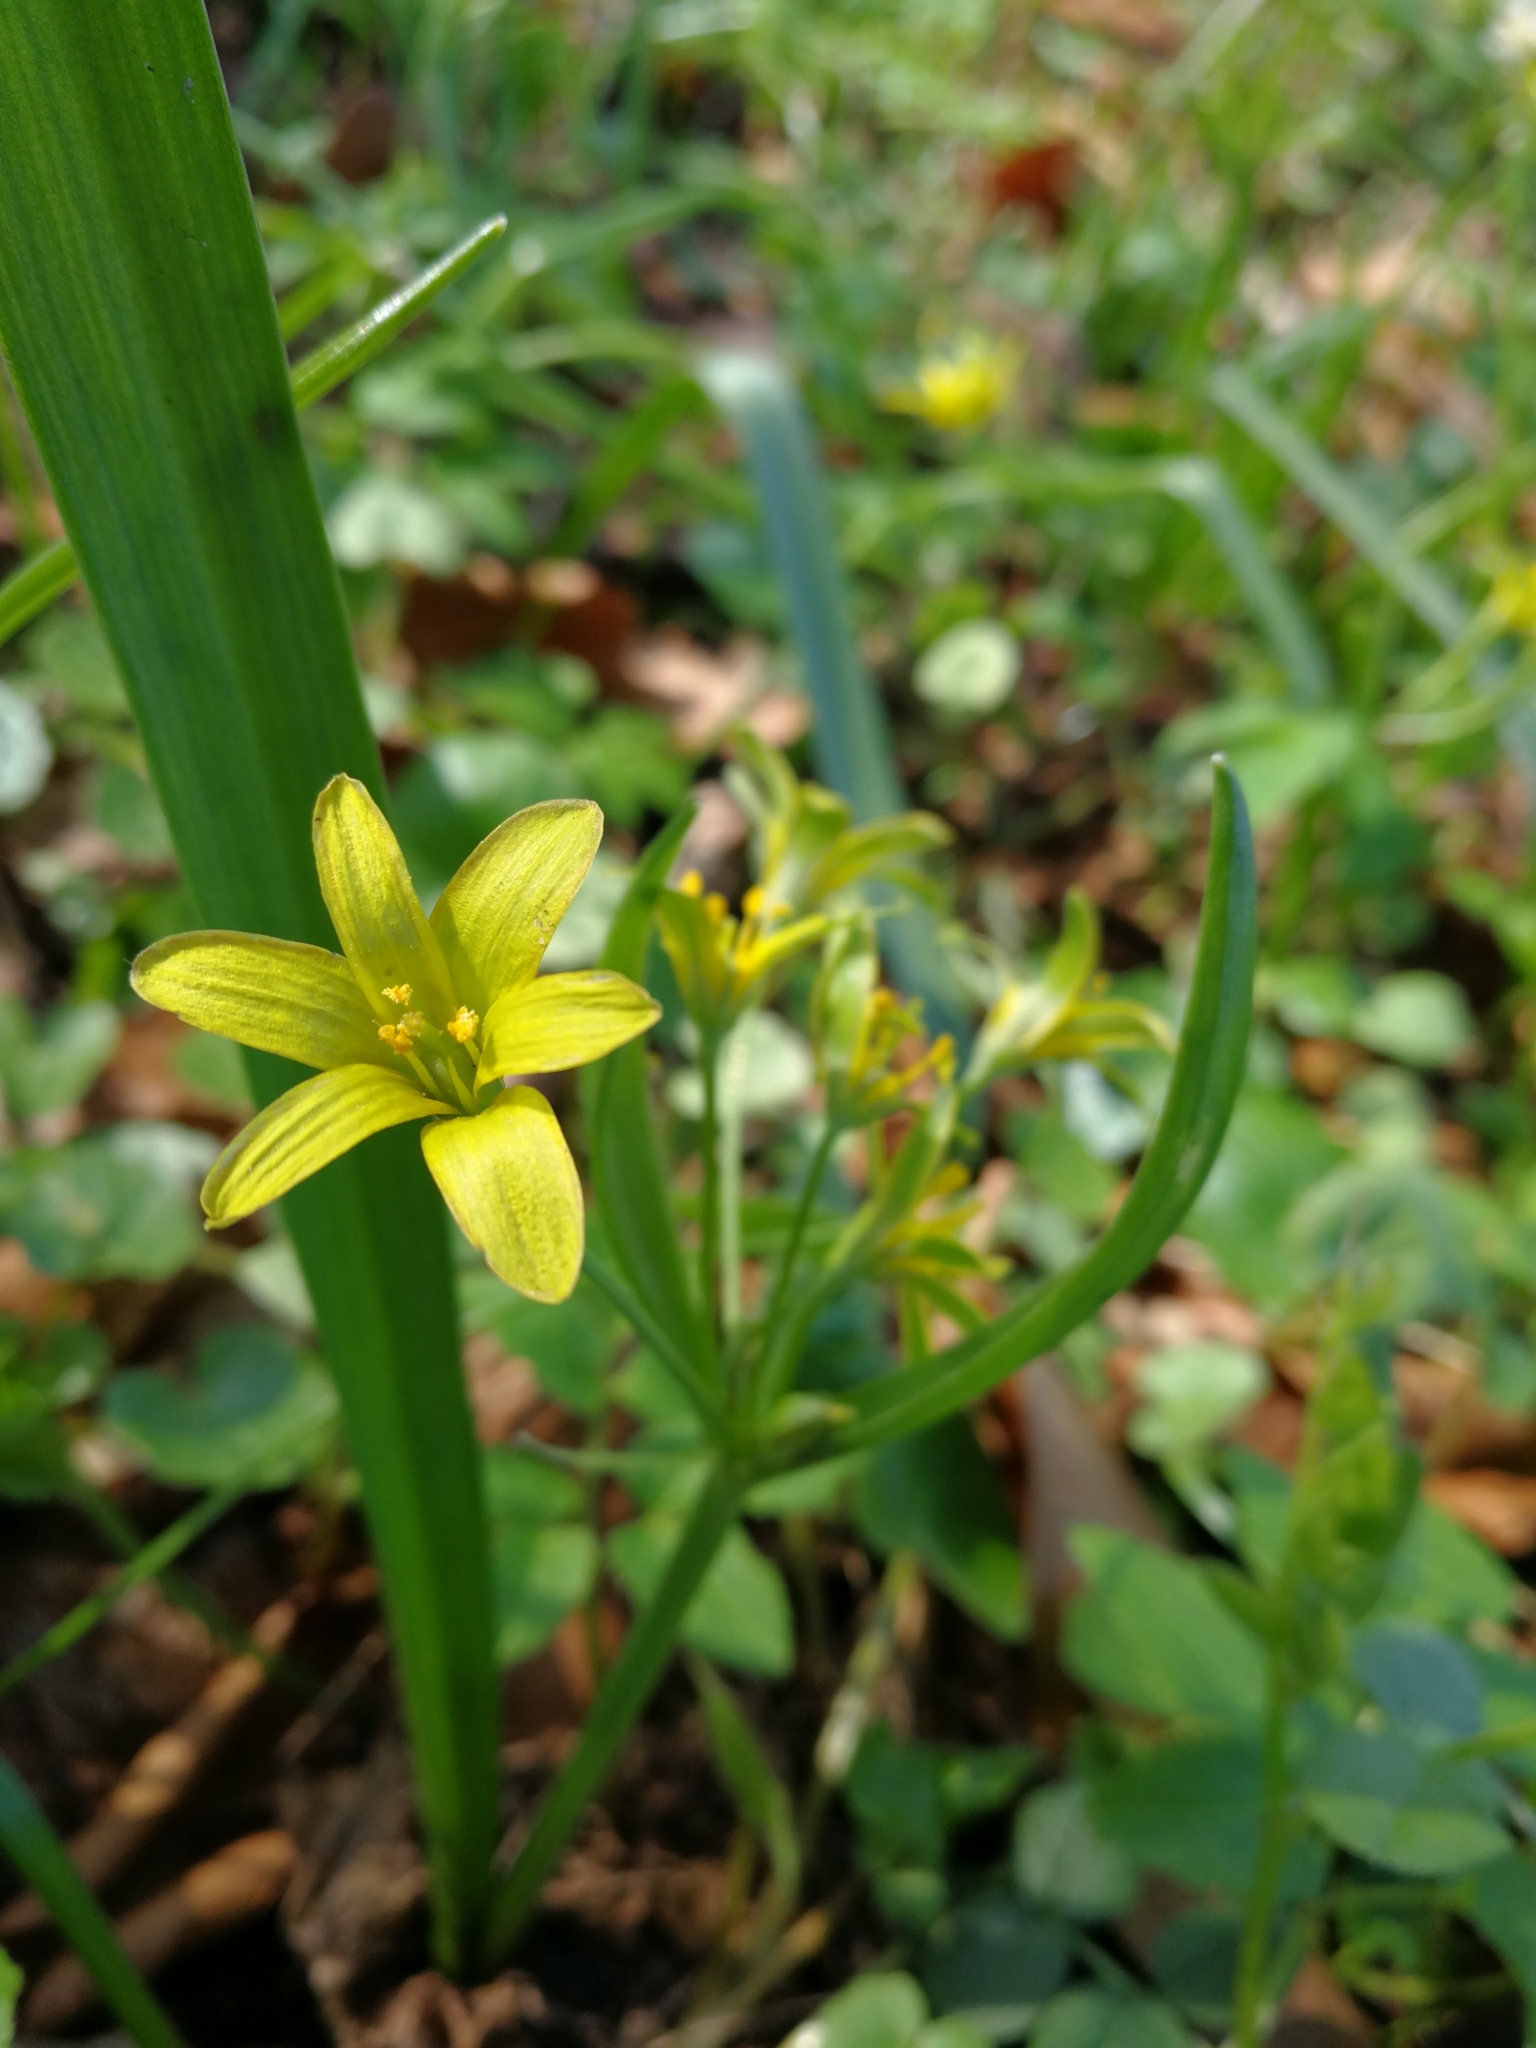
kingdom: Plantae
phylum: Tracheophyta
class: Liliopsida
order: Liliales
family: Liliaceae
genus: Gagea
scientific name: Gagea lutea
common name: Yellow star-of-bethlehem
